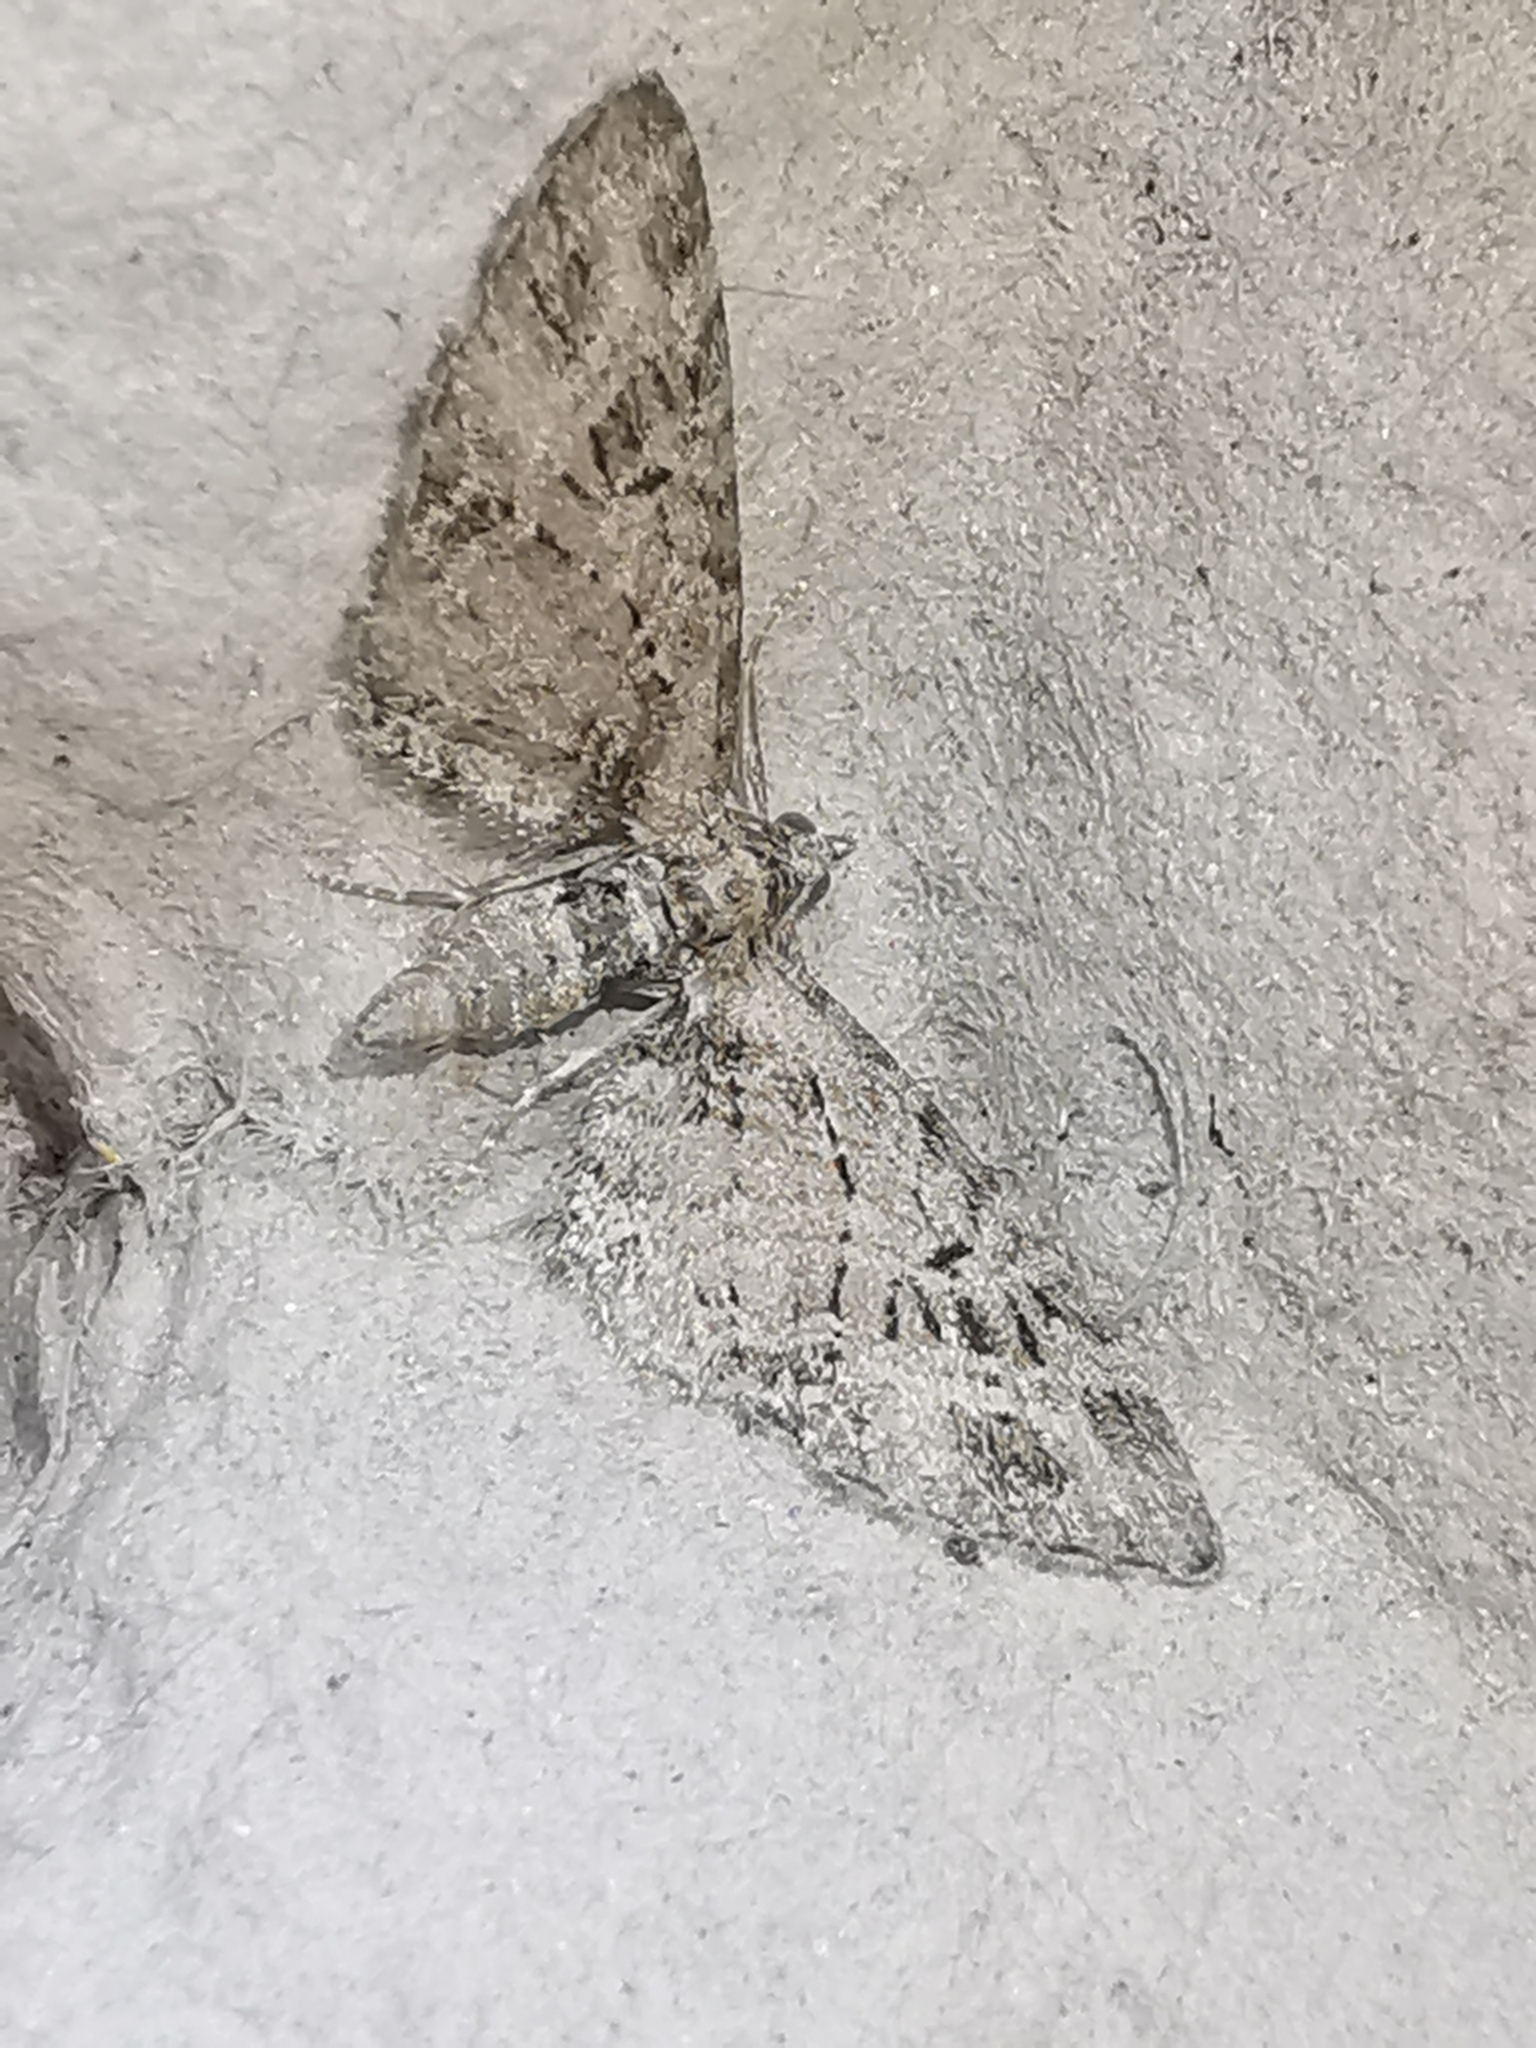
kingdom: Animalia
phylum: Arthropoda
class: Insecta
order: Lepidoptera
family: Geometridae
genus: Eupithecia
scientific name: Eupithecia exiguata
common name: Mottled pug
